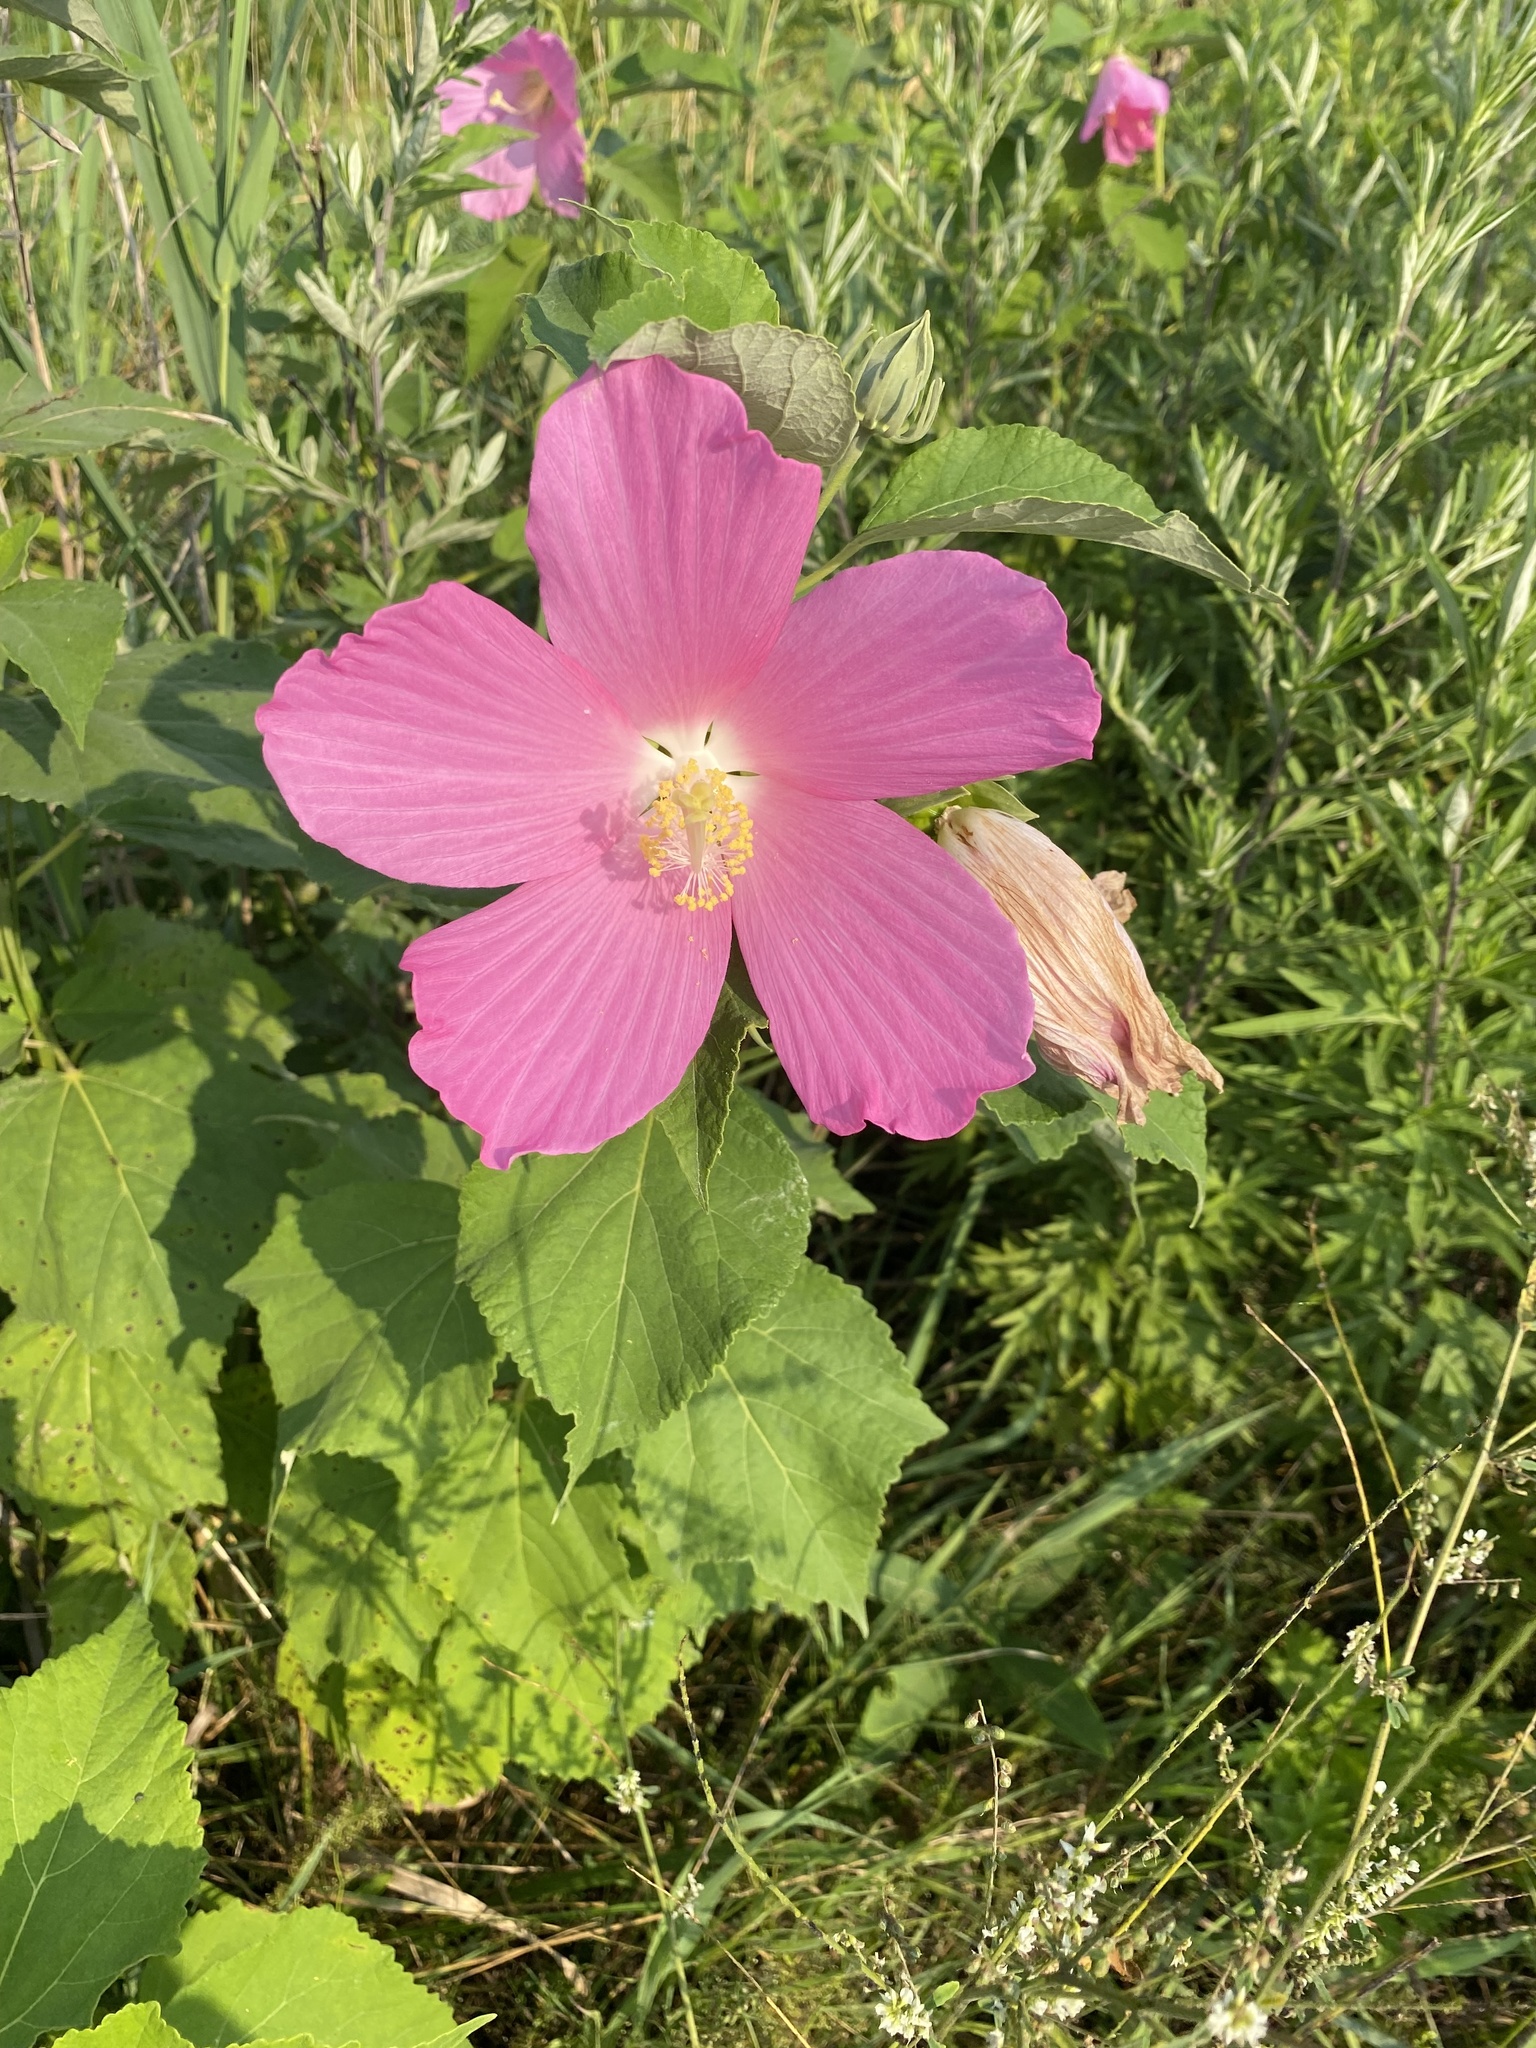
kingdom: Plantae
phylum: Tracheophyta
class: Magnoliopsida
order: Malvales
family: Malvaceae
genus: Hibiscus
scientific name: Hibiscus moscheutos
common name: Common rose-mallow
